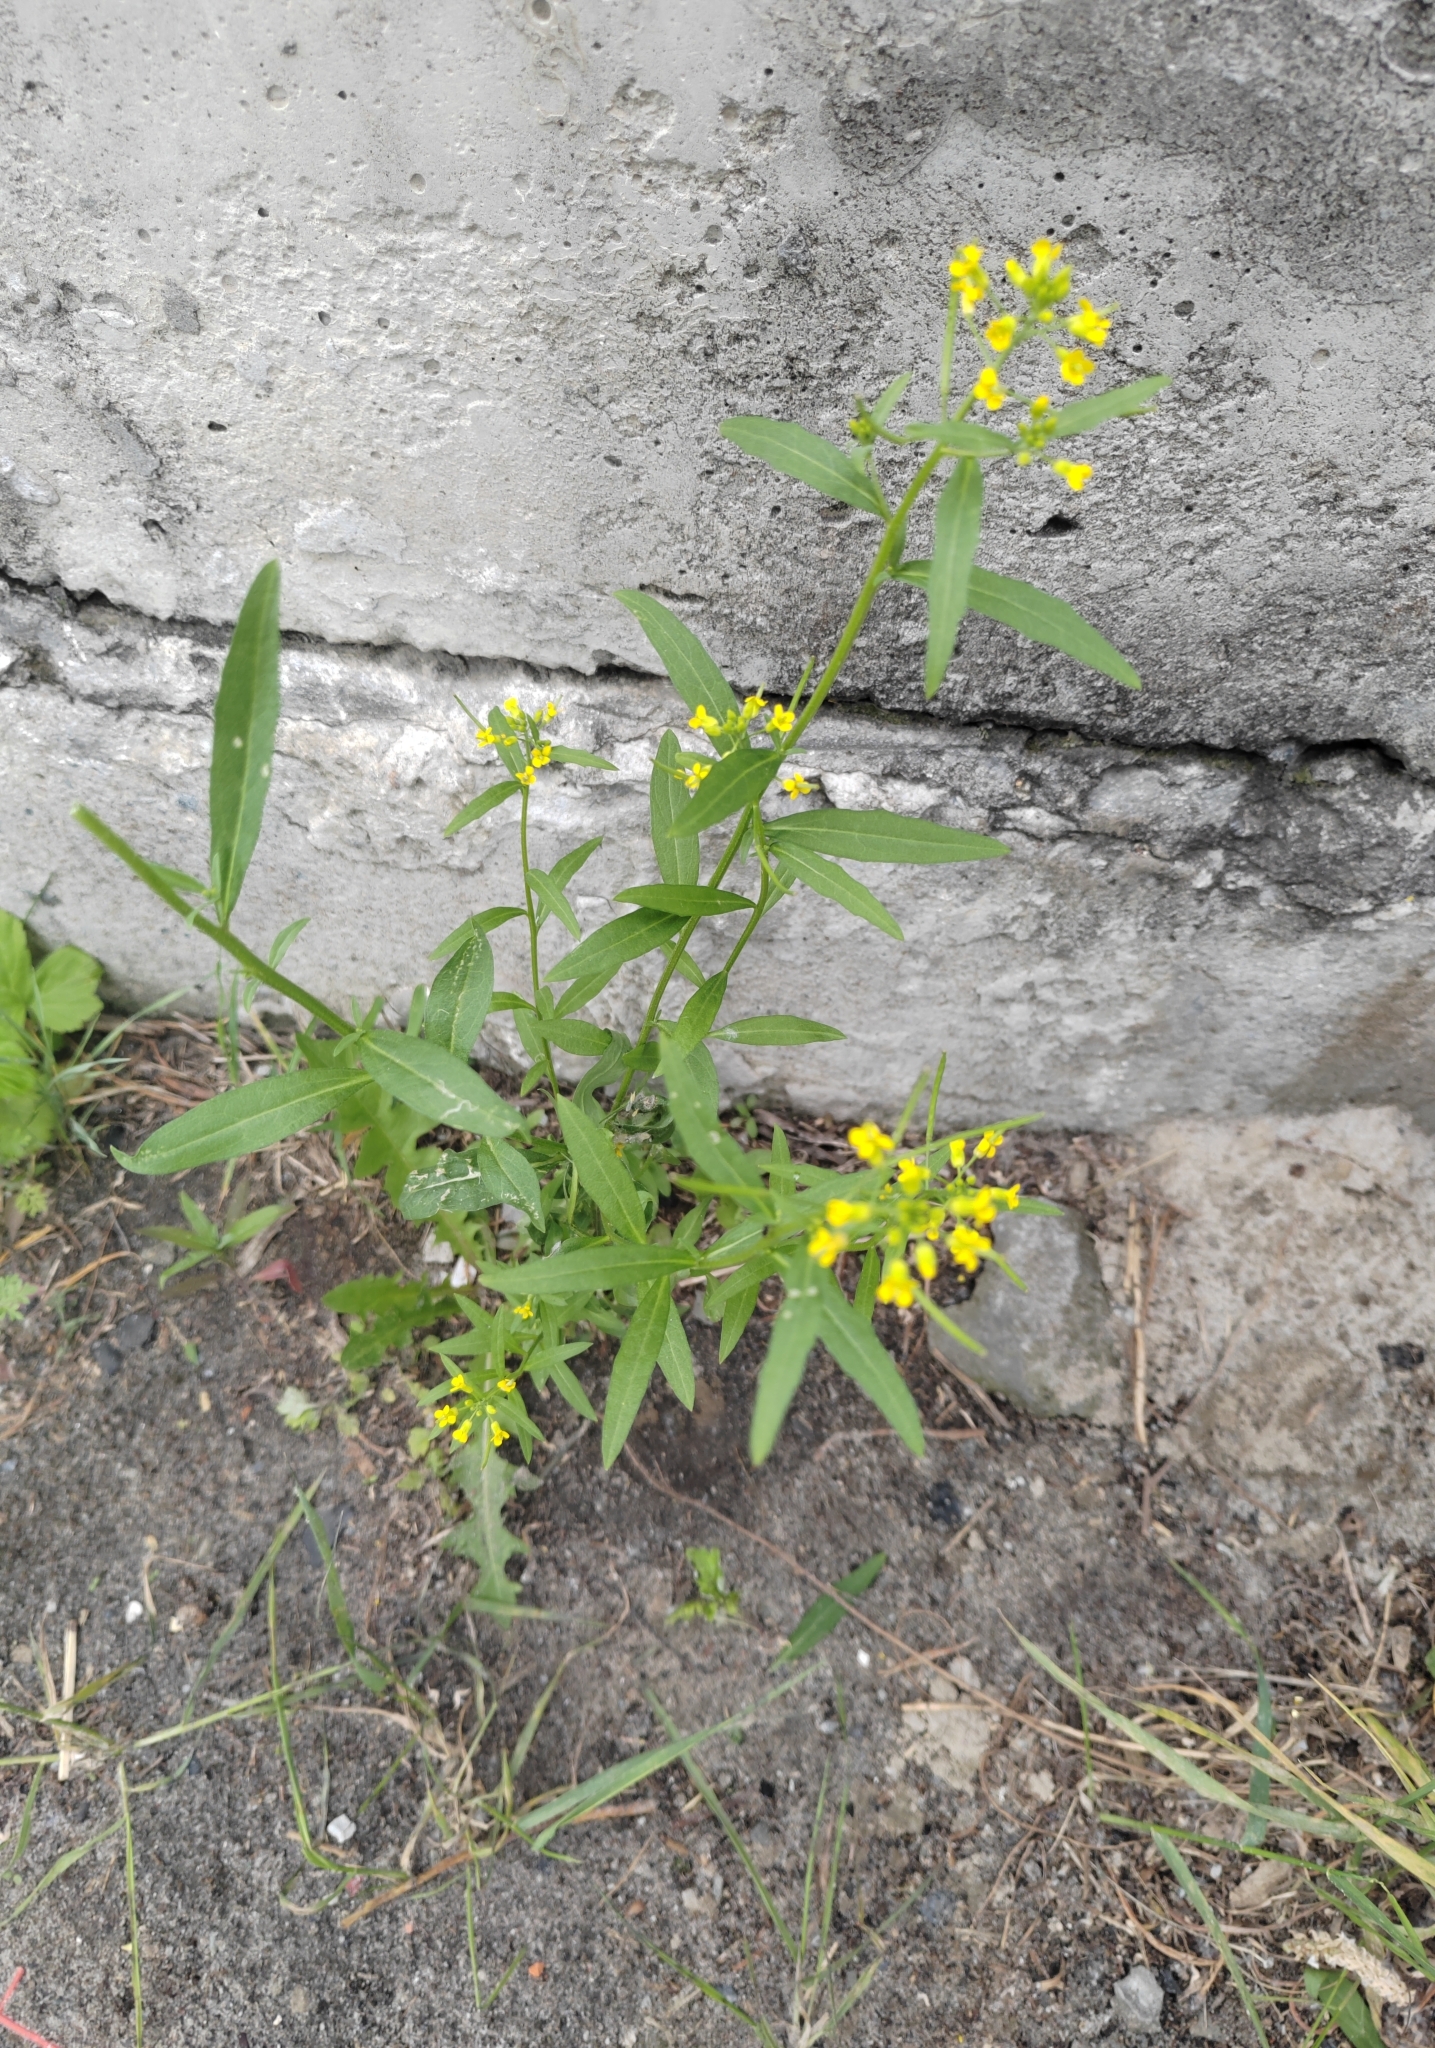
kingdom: Plantae
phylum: Tracheophyta
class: Magnoliopsida
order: Brassicales
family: Brassicaceae
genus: Erysimum
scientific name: Erysimum cheiranthoides
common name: Treacle mustard
